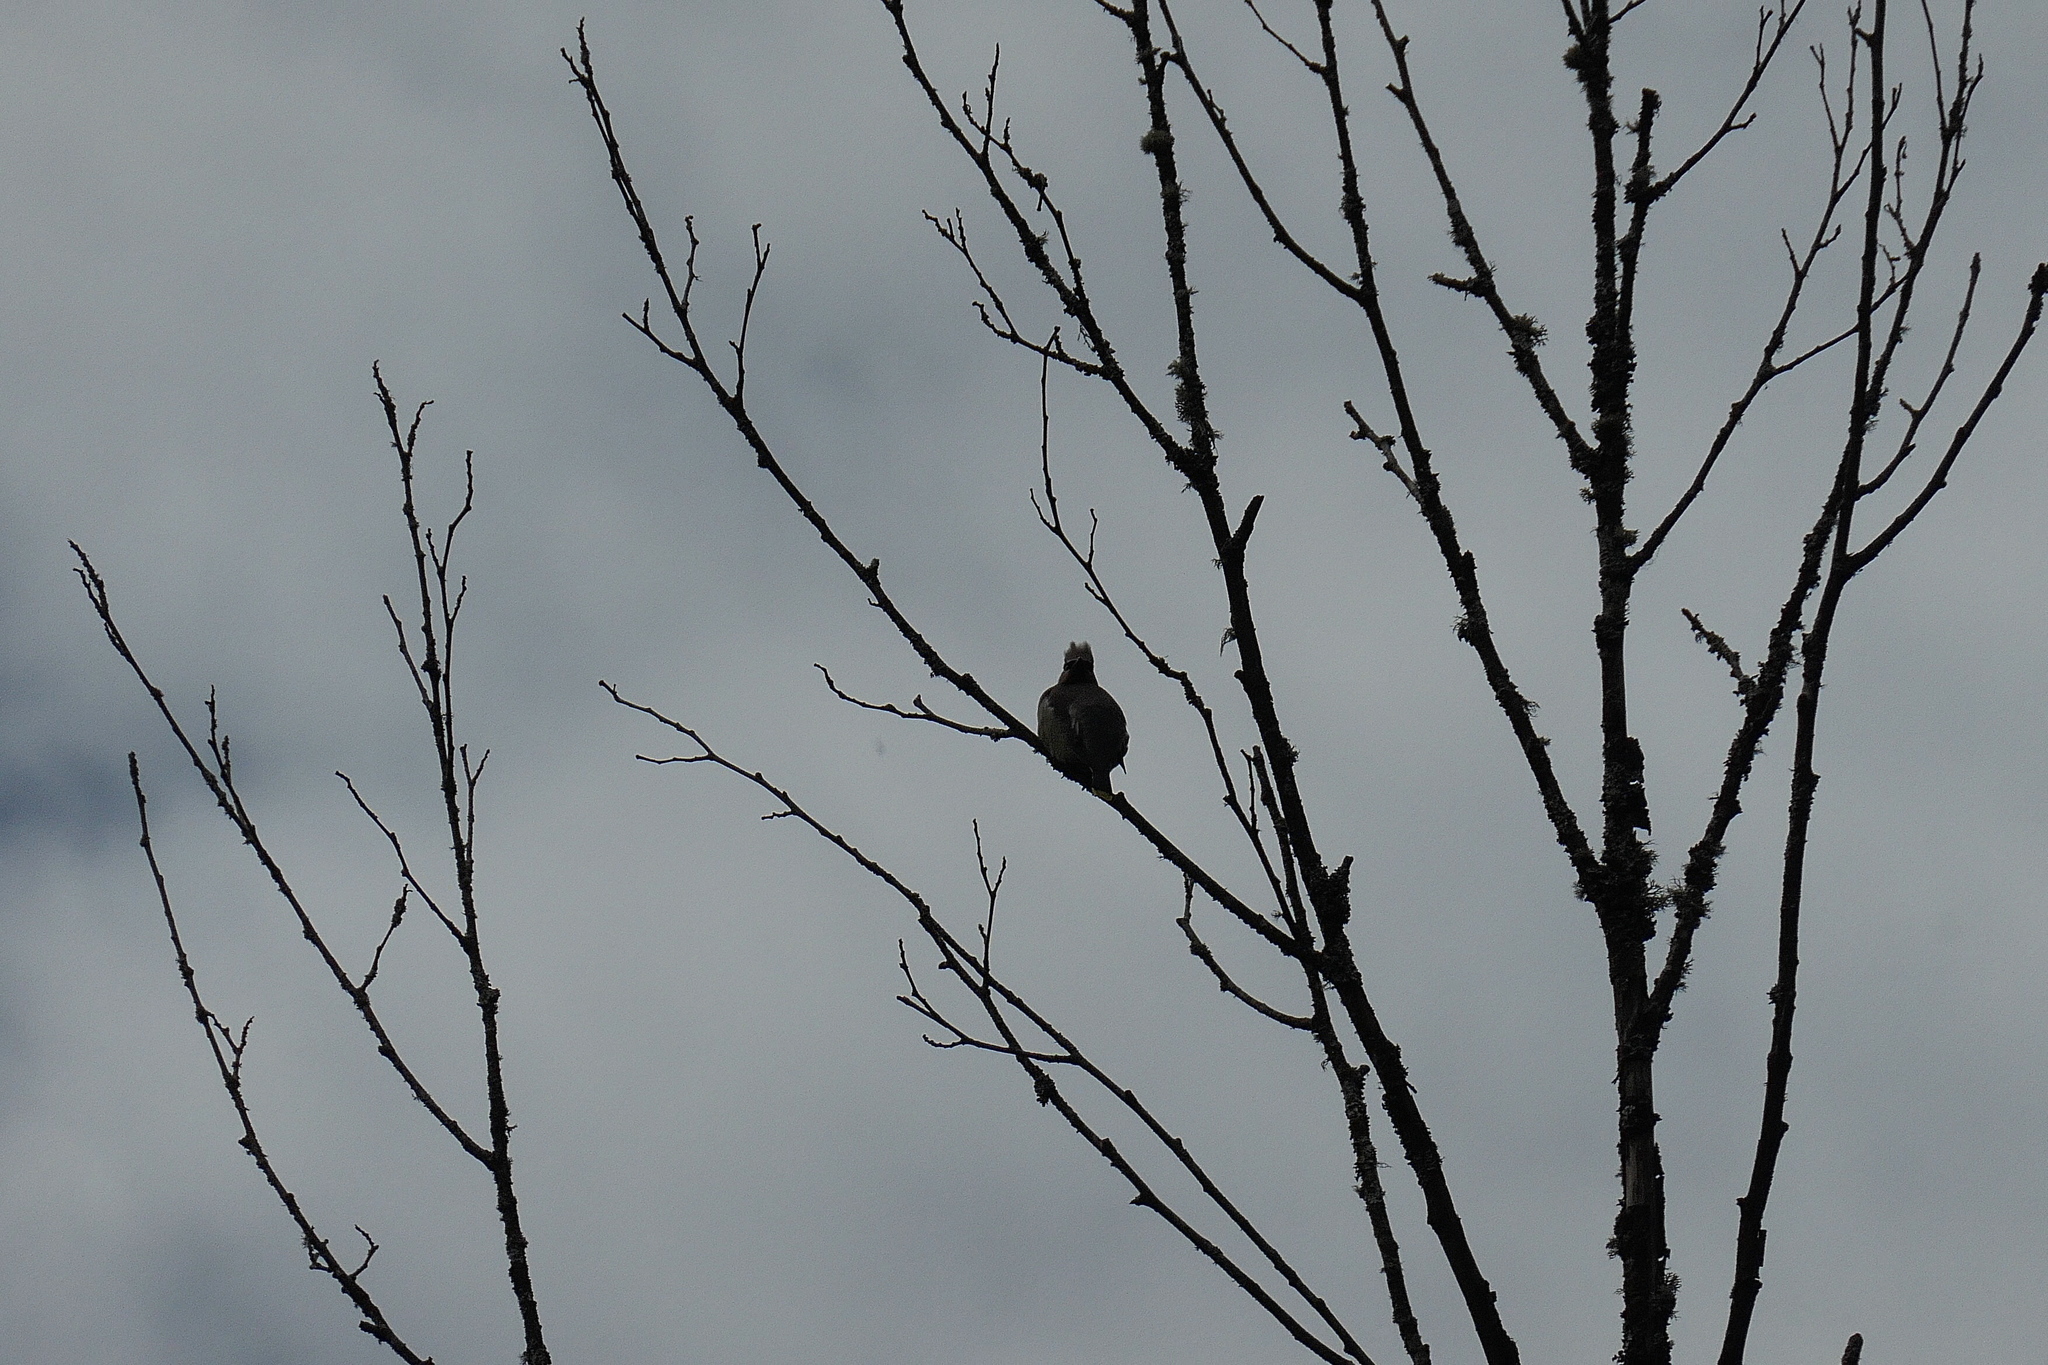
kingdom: Animalia
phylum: Chordata
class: Aves
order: Passeriformes
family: Bombycillidae
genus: Bombycilla
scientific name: Bombycilla cedrorum
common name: Cedar waxwing
